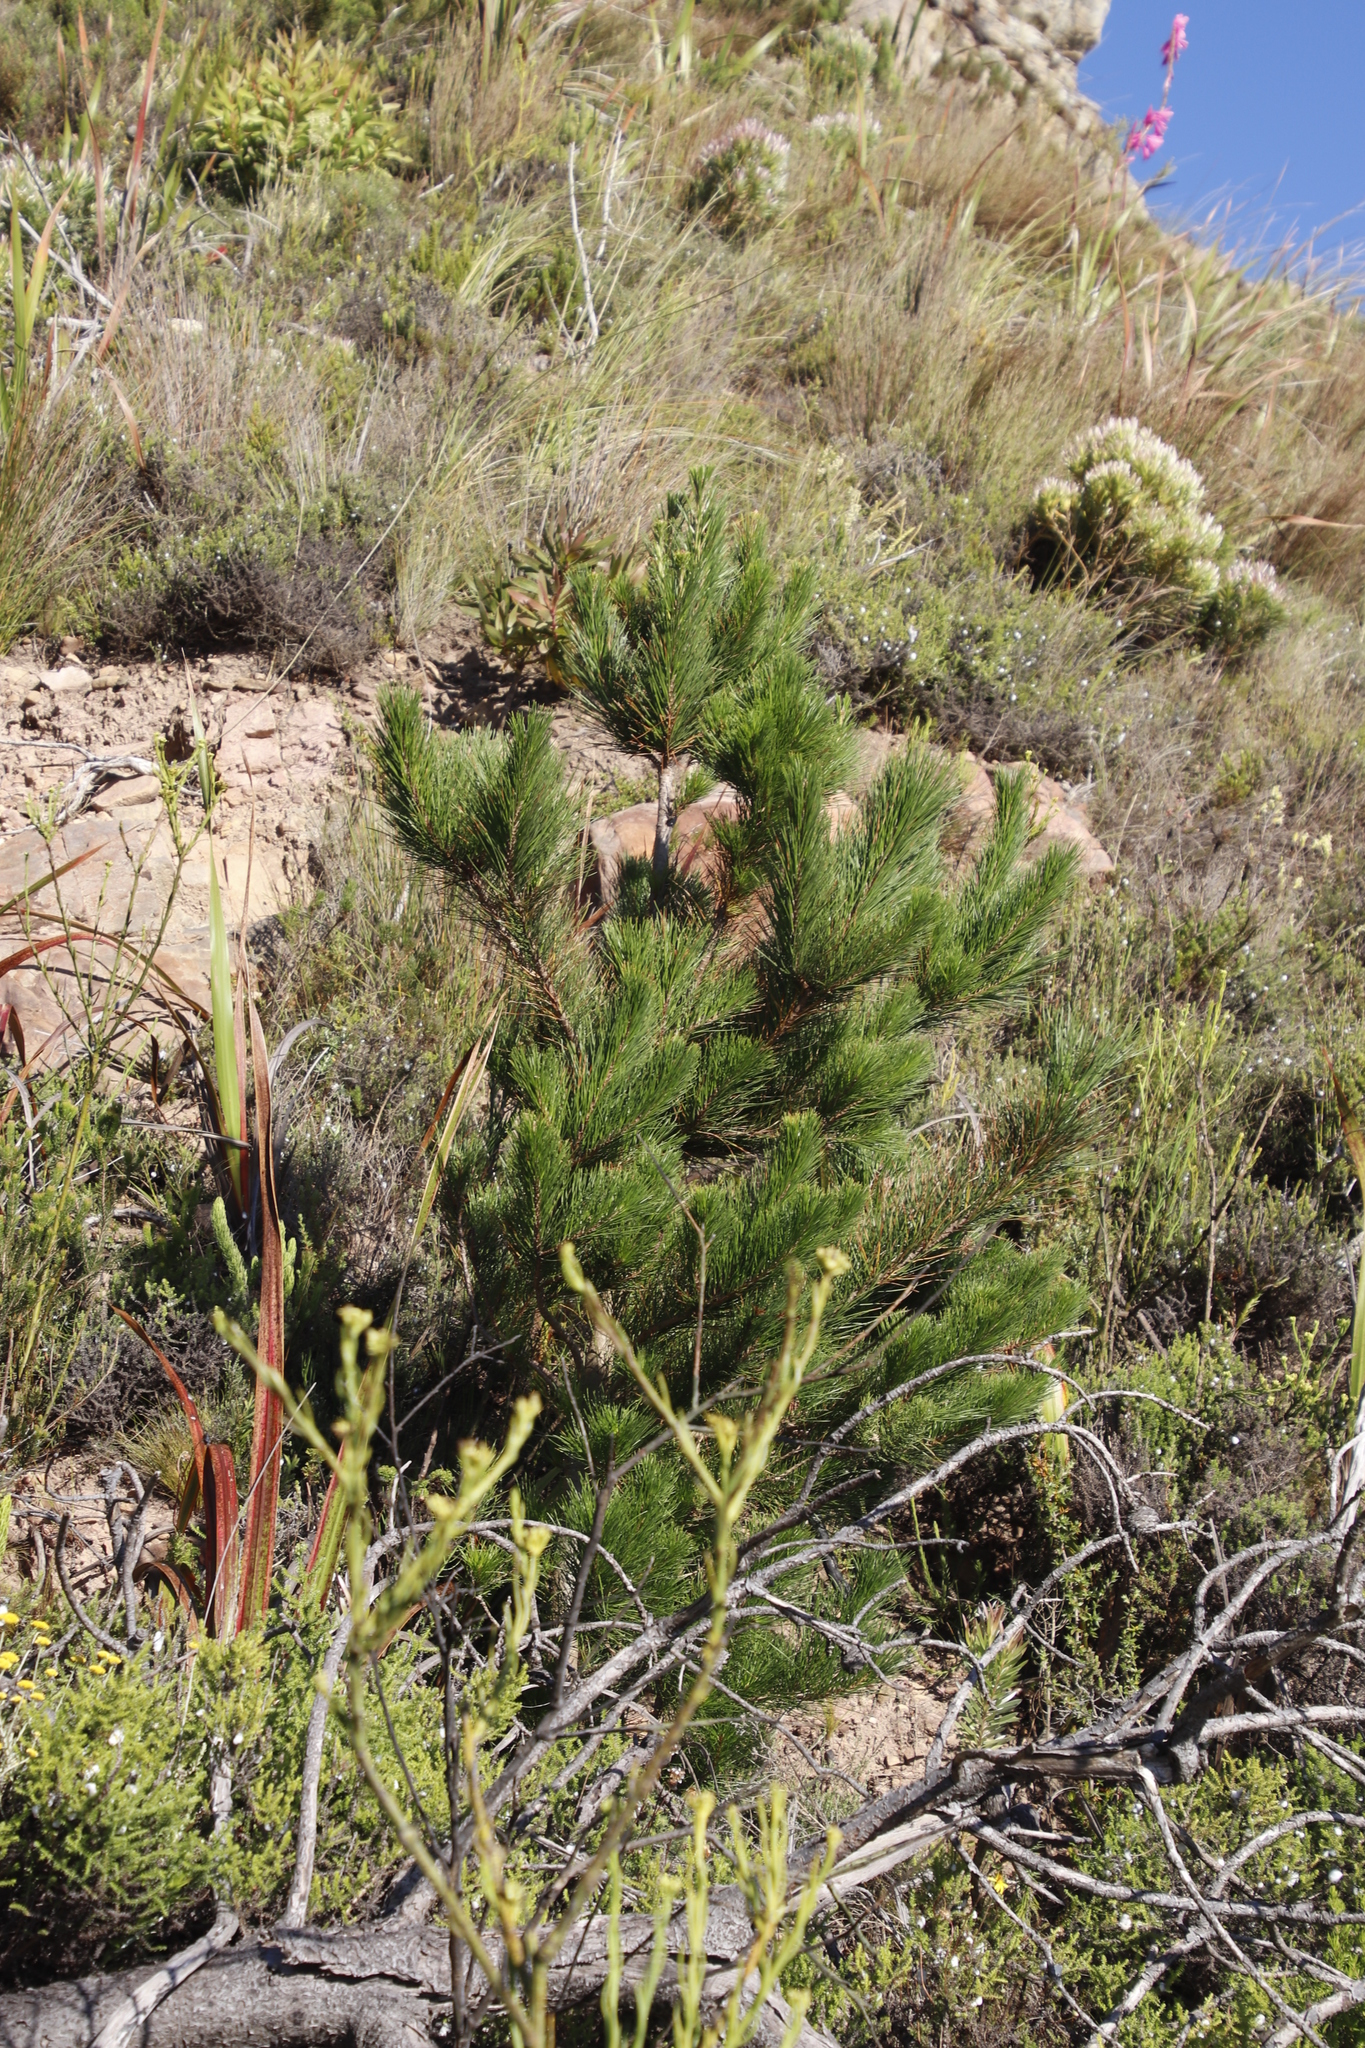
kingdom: Plantae
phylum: Tracheophyta
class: Pinopsida
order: Pinales
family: Pinaceae
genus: Pinus
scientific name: Pinus radiata
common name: Monterey pine
